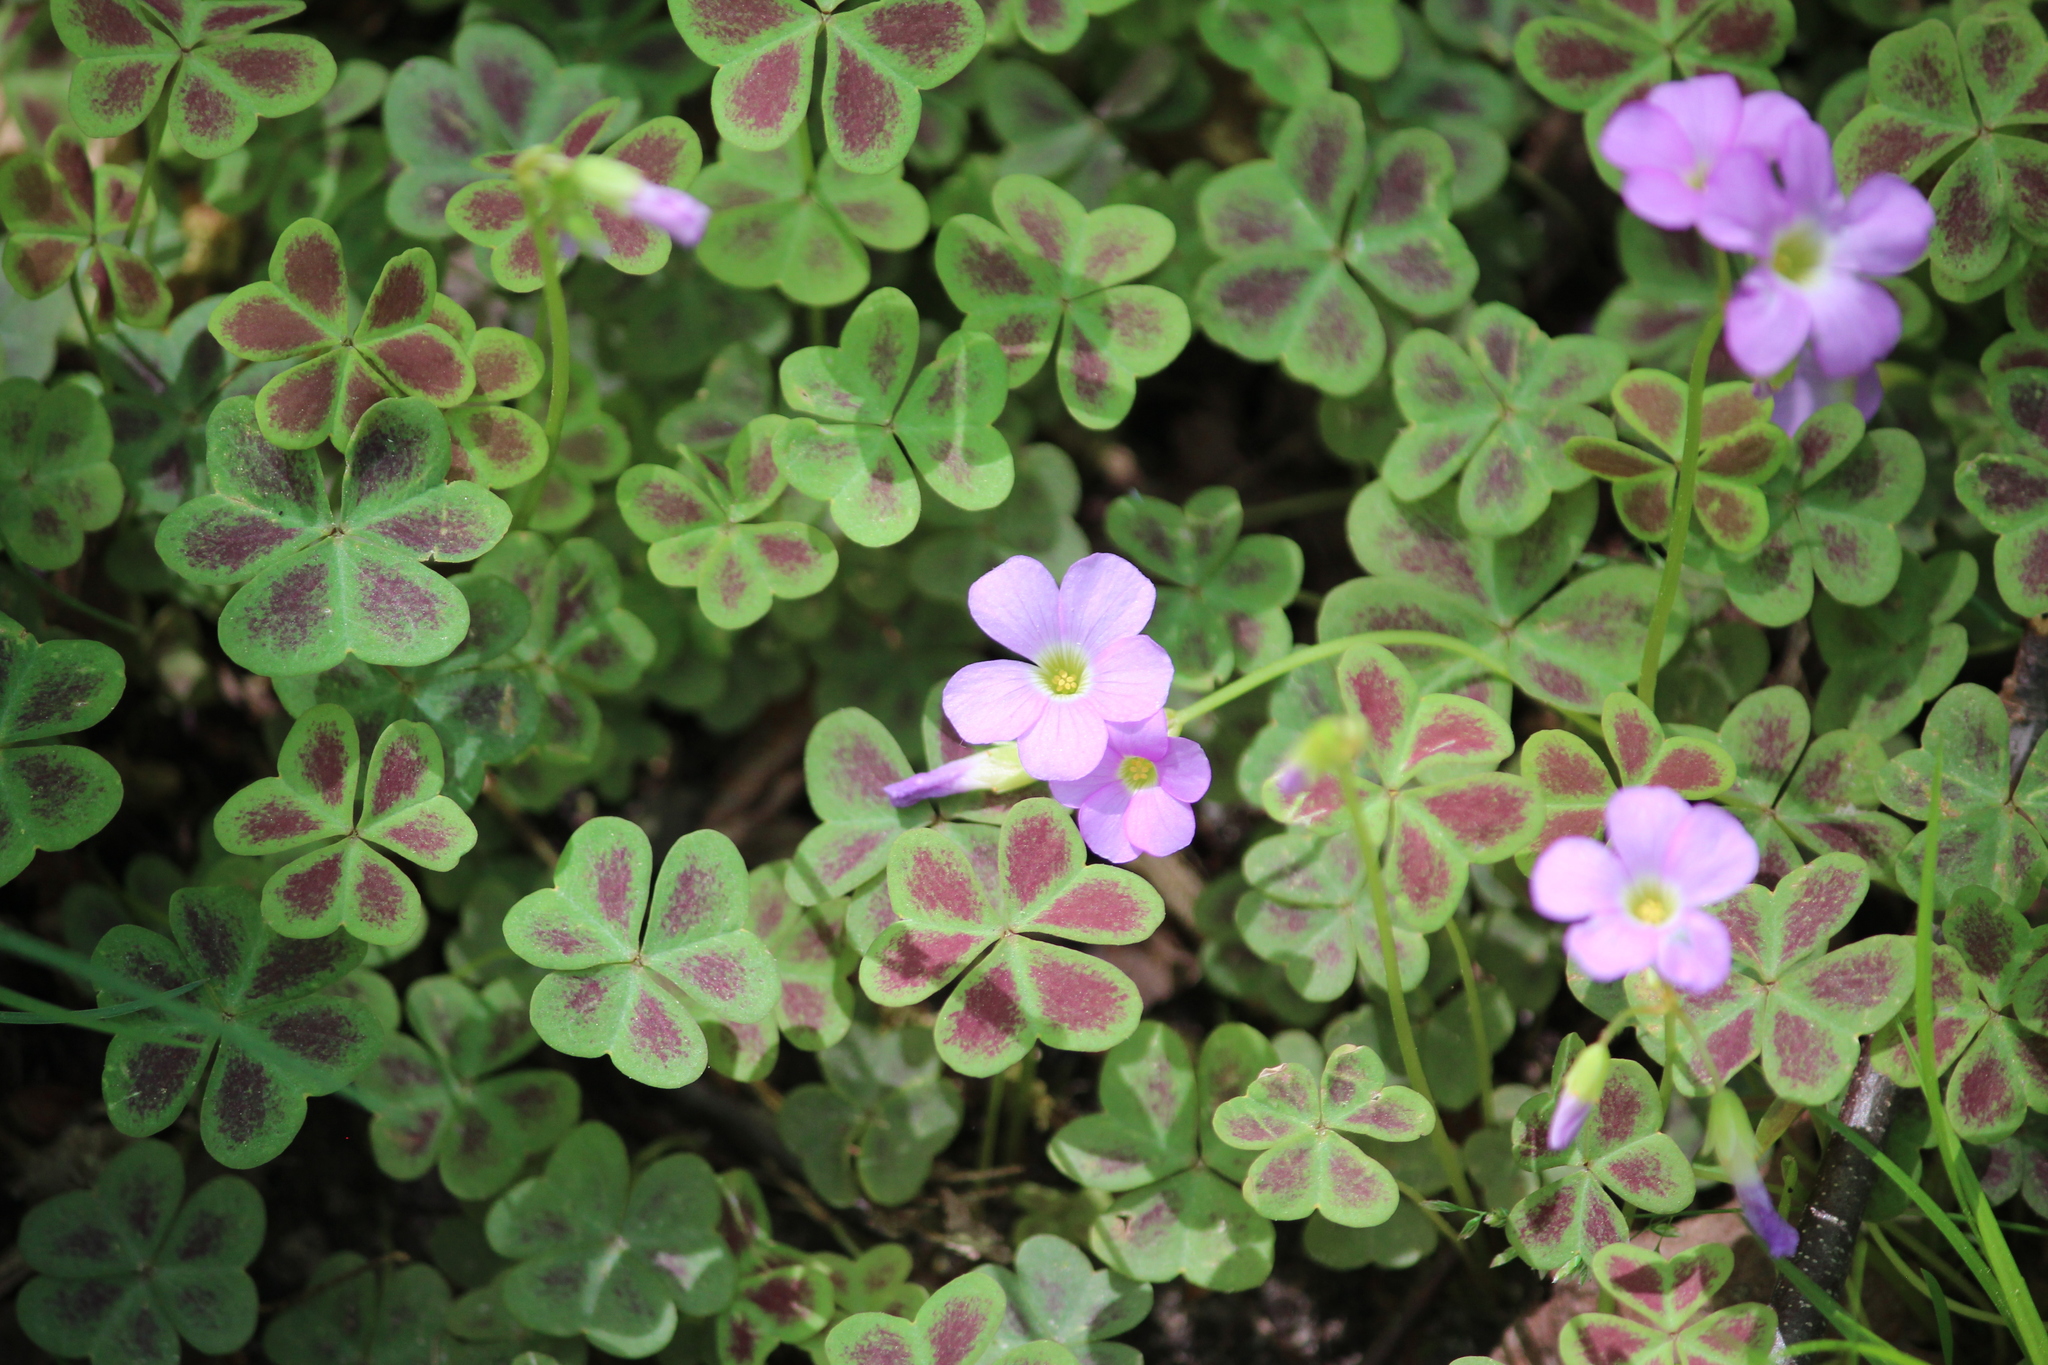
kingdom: Plantae
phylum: Tracheophyta
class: Magnoliopsida
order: Oxalidales
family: Oxalidaceae
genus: Oxalis
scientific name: Oxalis violacea
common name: Violet wood-sorrel
